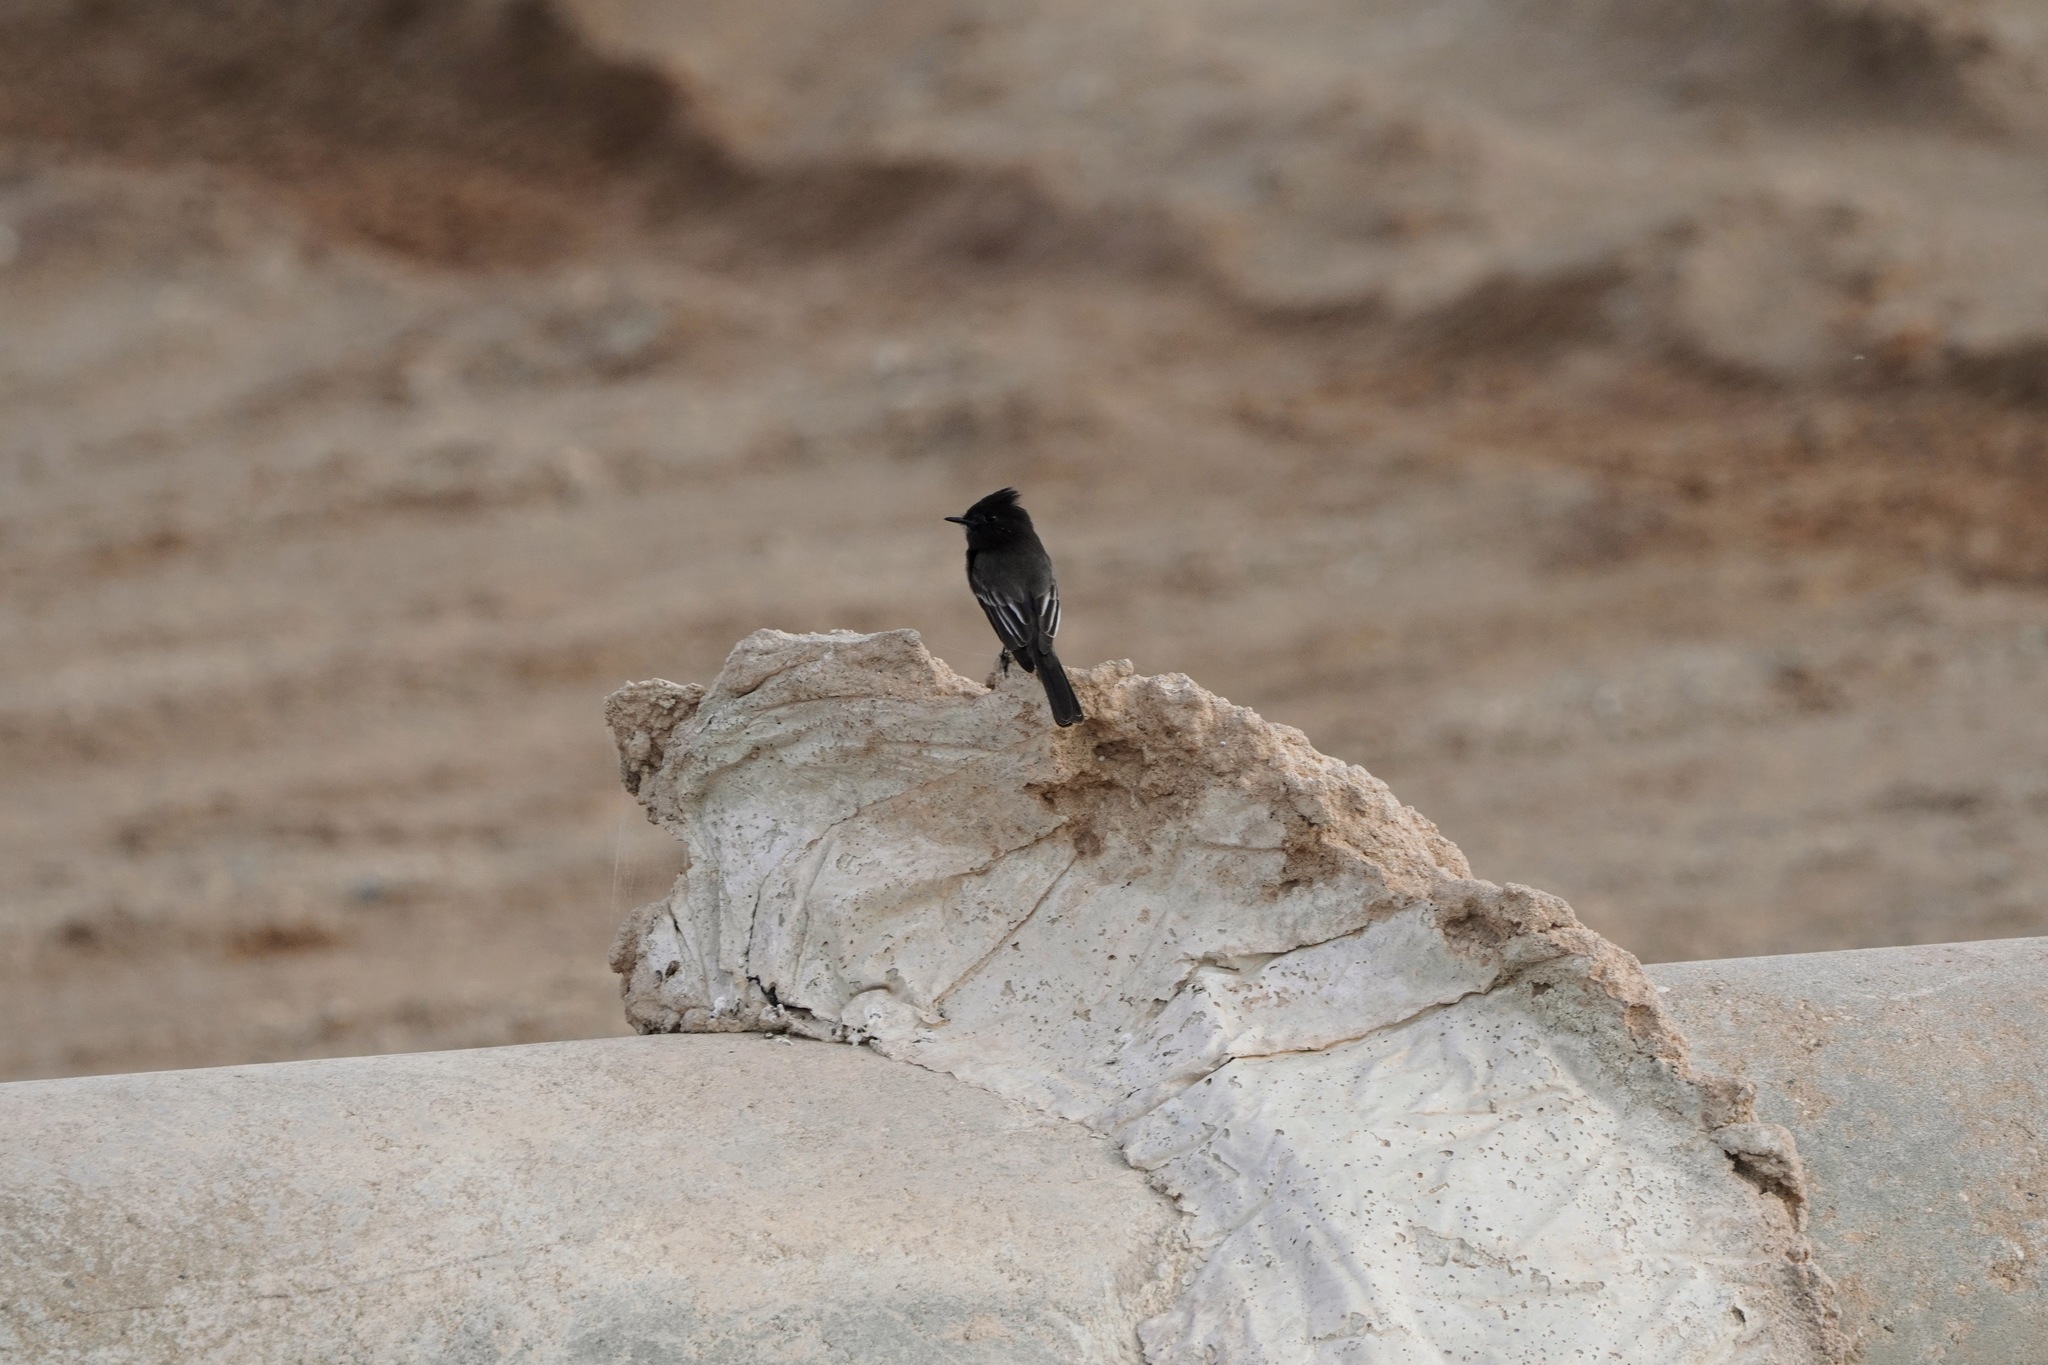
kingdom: Animalia
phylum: Chordata
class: Aves
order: Passeriformes
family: Tyrannidae
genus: Sayornis
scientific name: Sayornis nigricans
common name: Black phoebe
